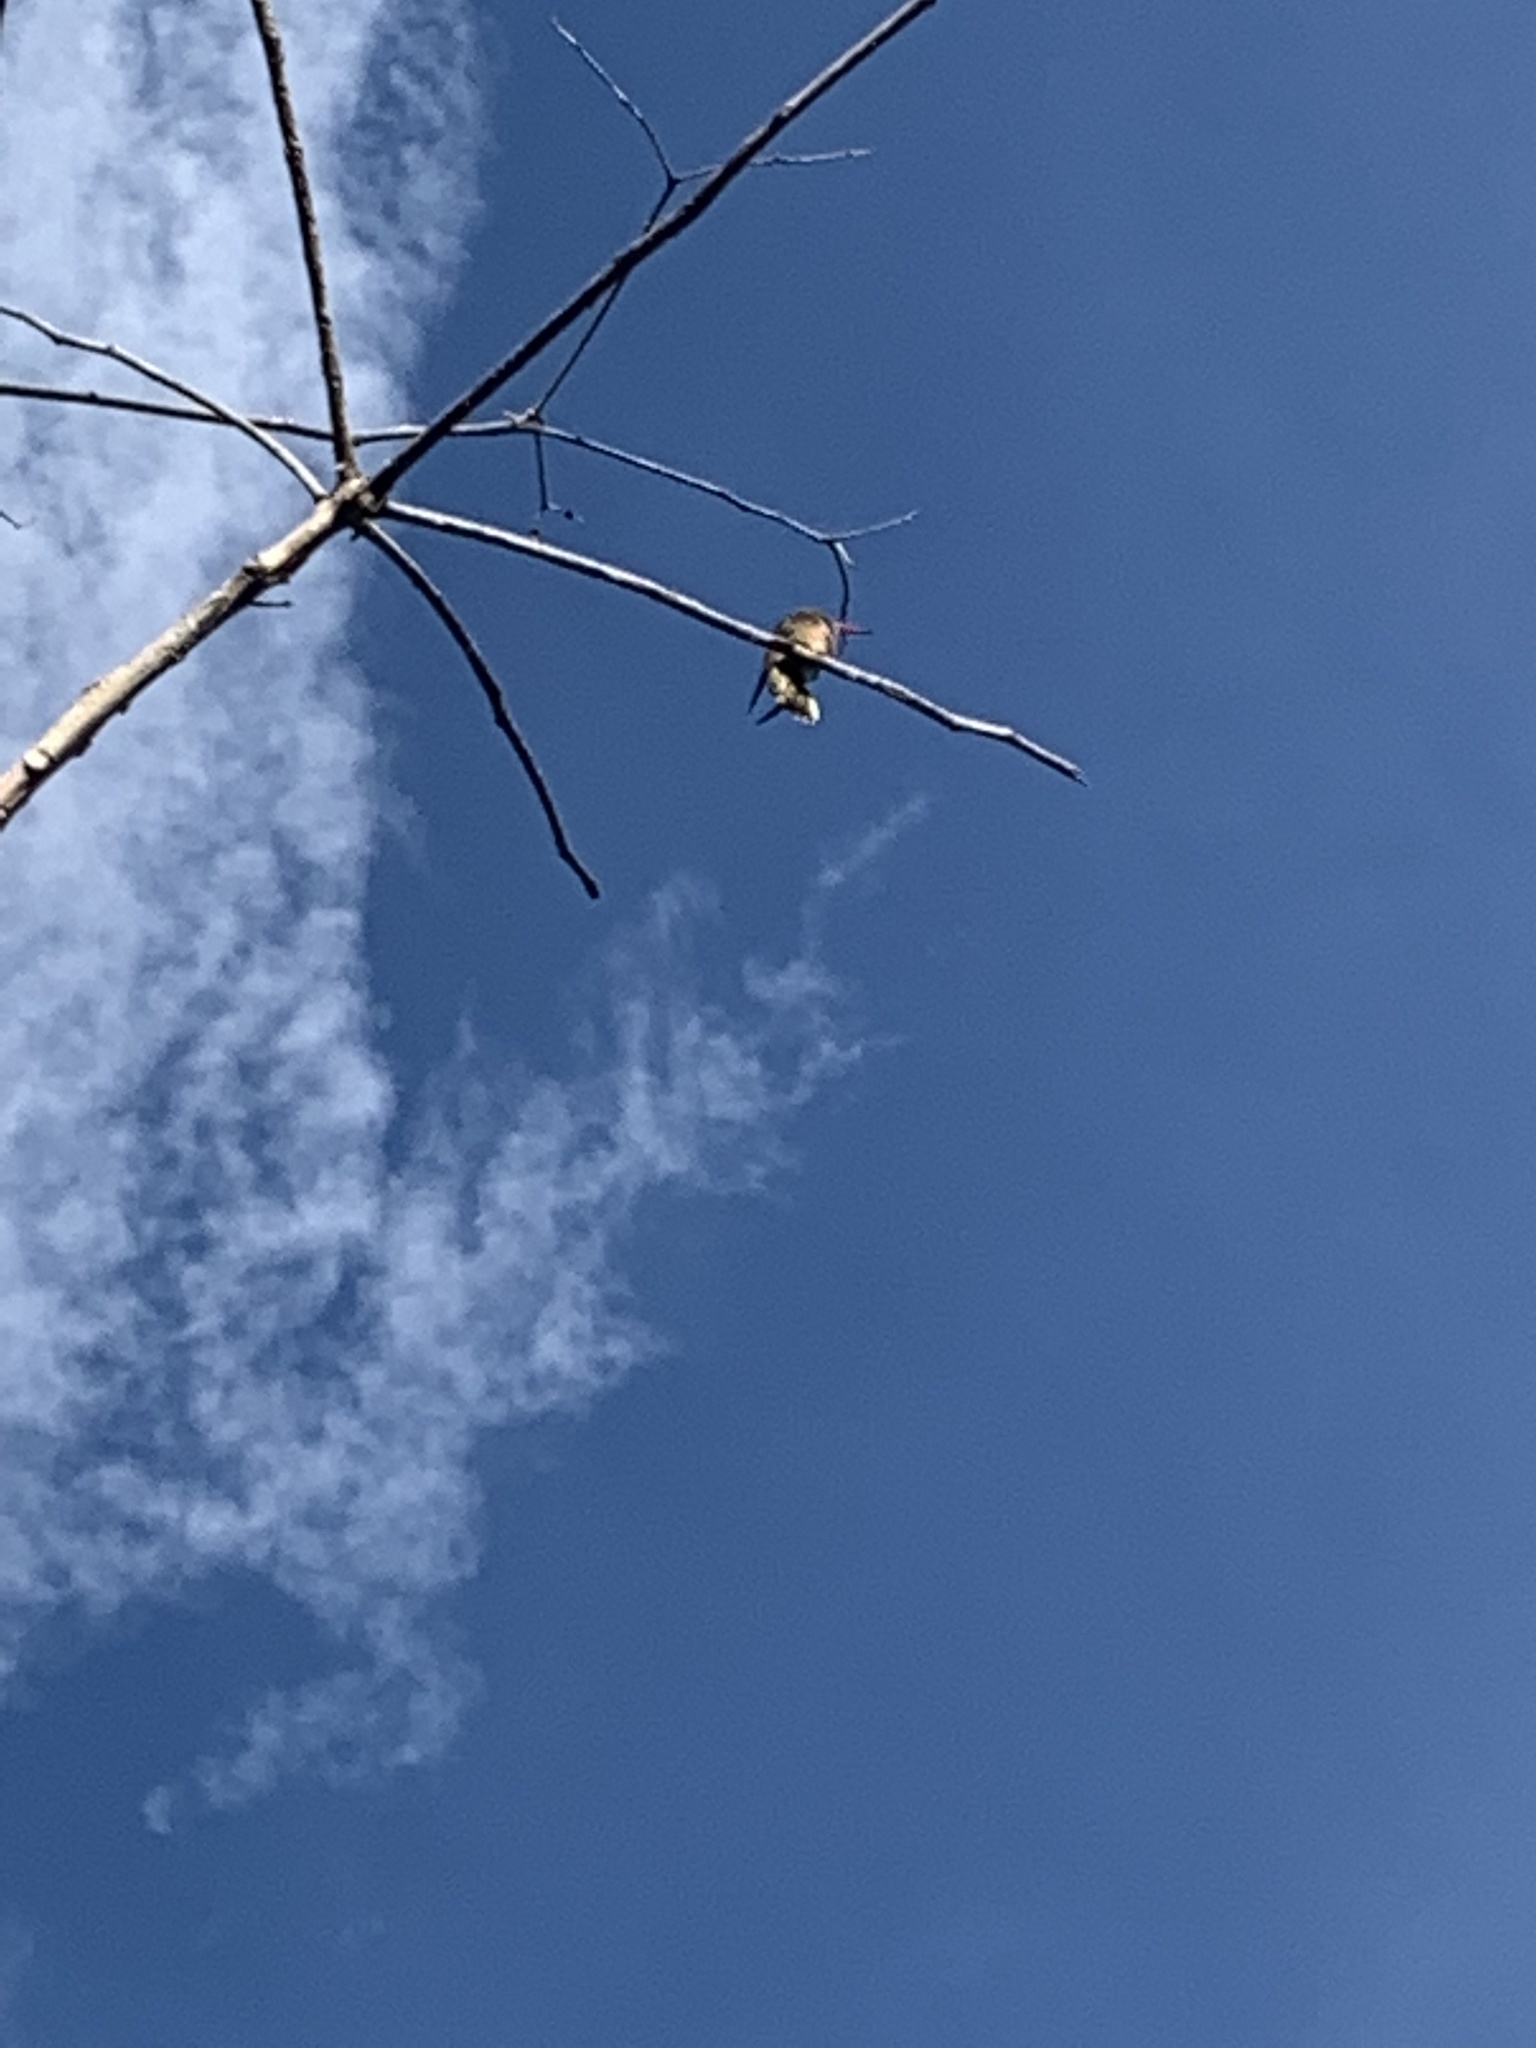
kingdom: Animalia
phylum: Chordata
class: Aves
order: Apodiformes
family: Trochilidae
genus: Hylocharis
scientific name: Hylocharis chrysura
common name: Gilded sapphire
